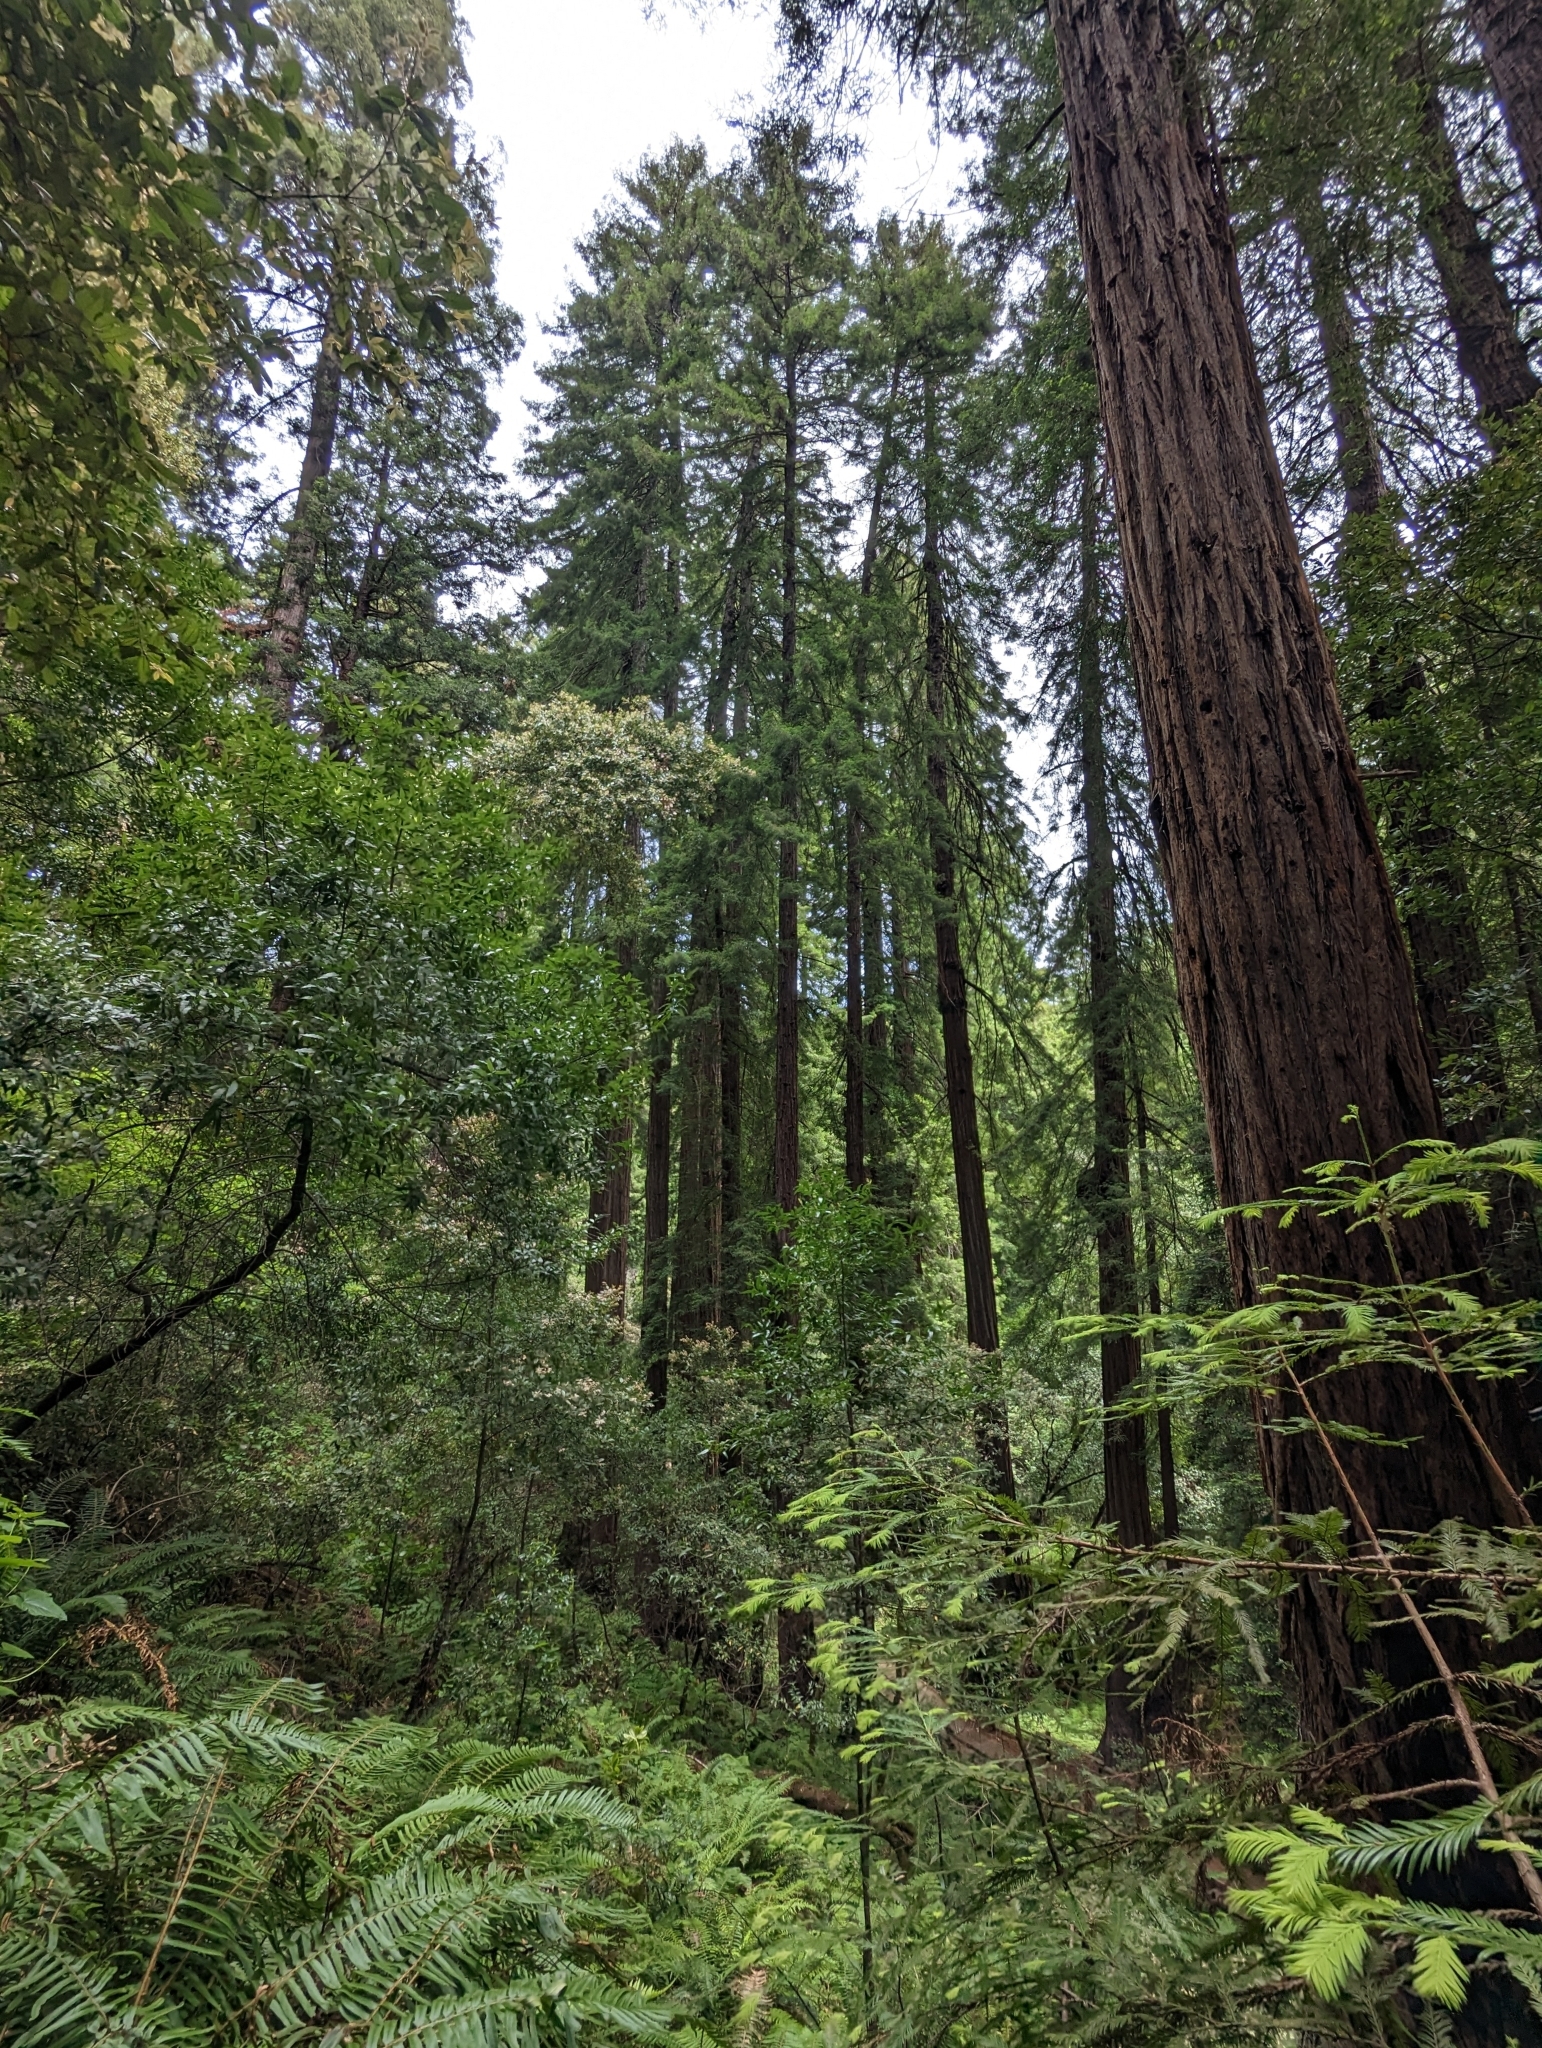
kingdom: Plantae
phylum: Tracheophyta
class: Pinopsida
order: Pinales
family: Cupressaceae
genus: Sequoia
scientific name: Sequoia sempervirens
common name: Coast redwood
